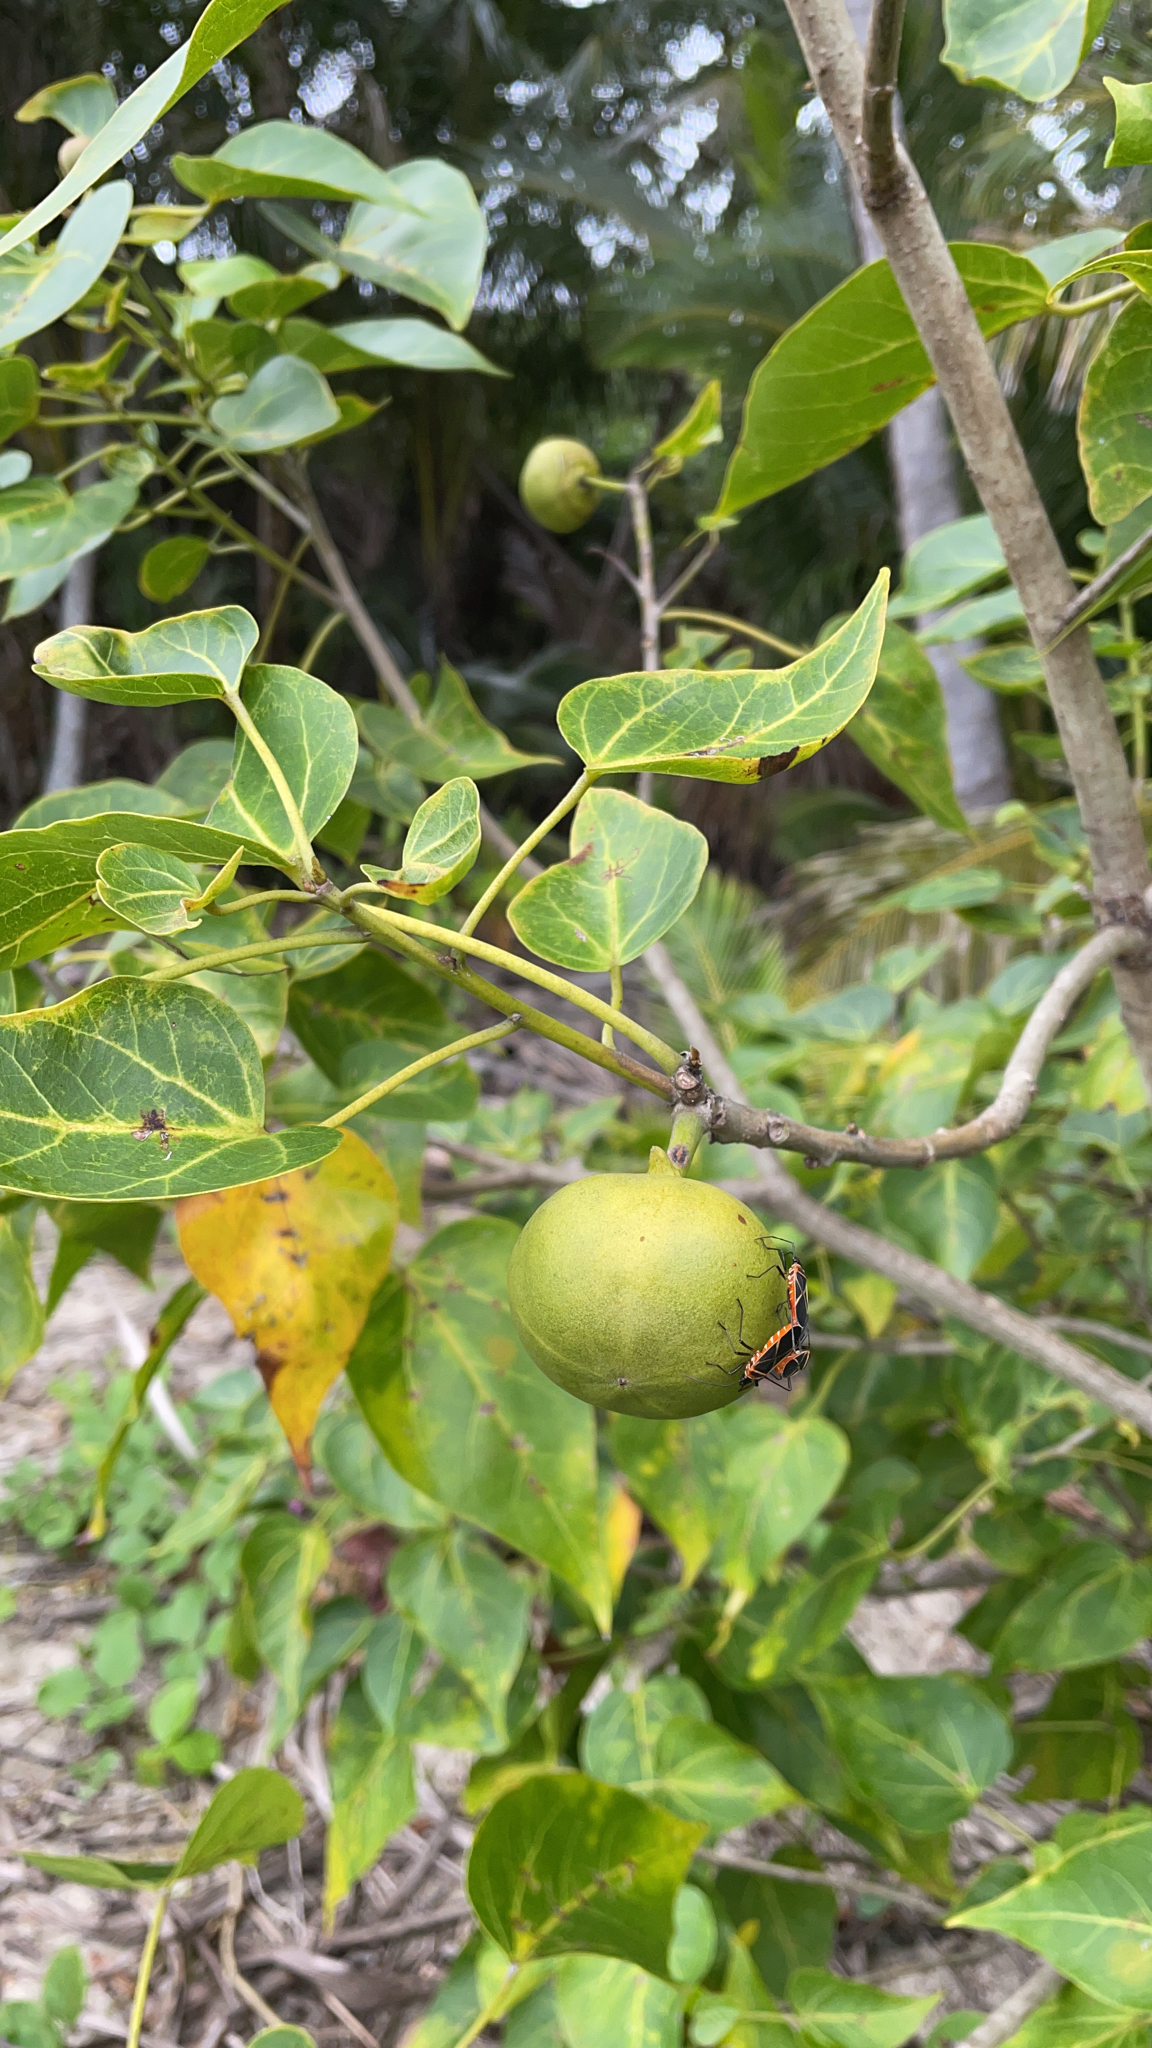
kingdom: Plantae
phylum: Tracheophyta
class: Magnoliopsida
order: Malvales
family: Malvaceae
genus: Thespesia
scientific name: Thespesia populnea
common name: Seaside mahoe
